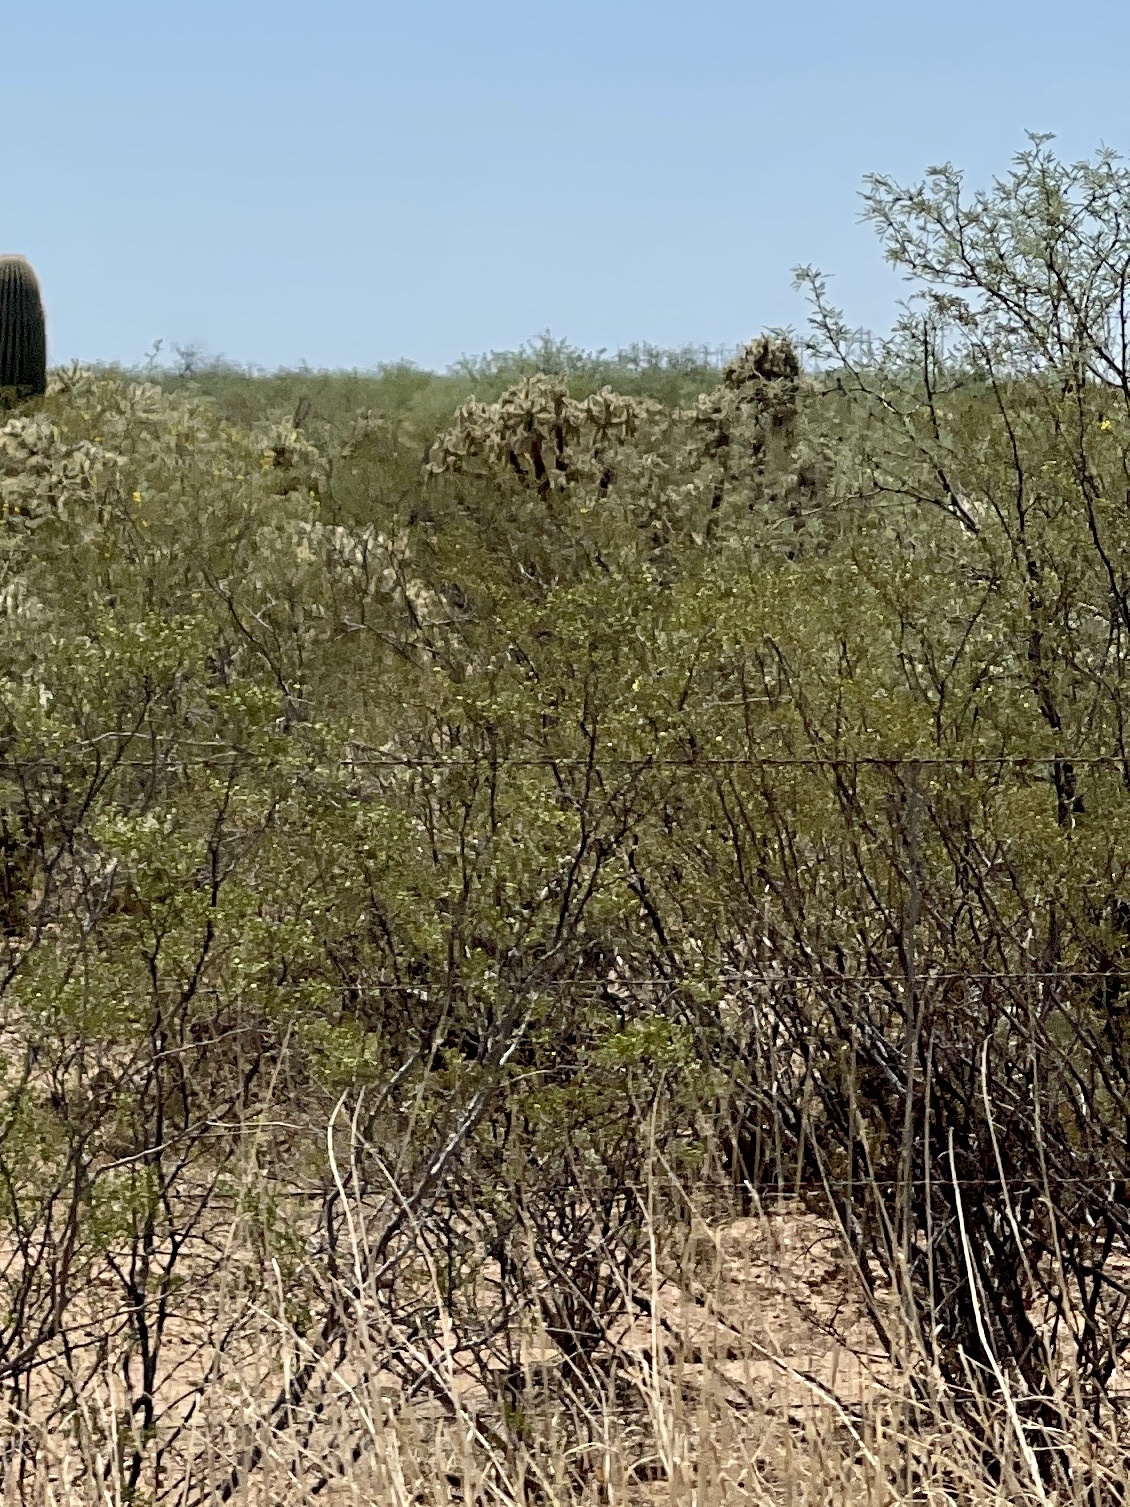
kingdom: Plantae
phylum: Tracheophyta
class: Magnoliopsida
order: Zygophyllales
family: Zygophyllaceae
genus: Larrea
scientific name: Larrea tridentata
